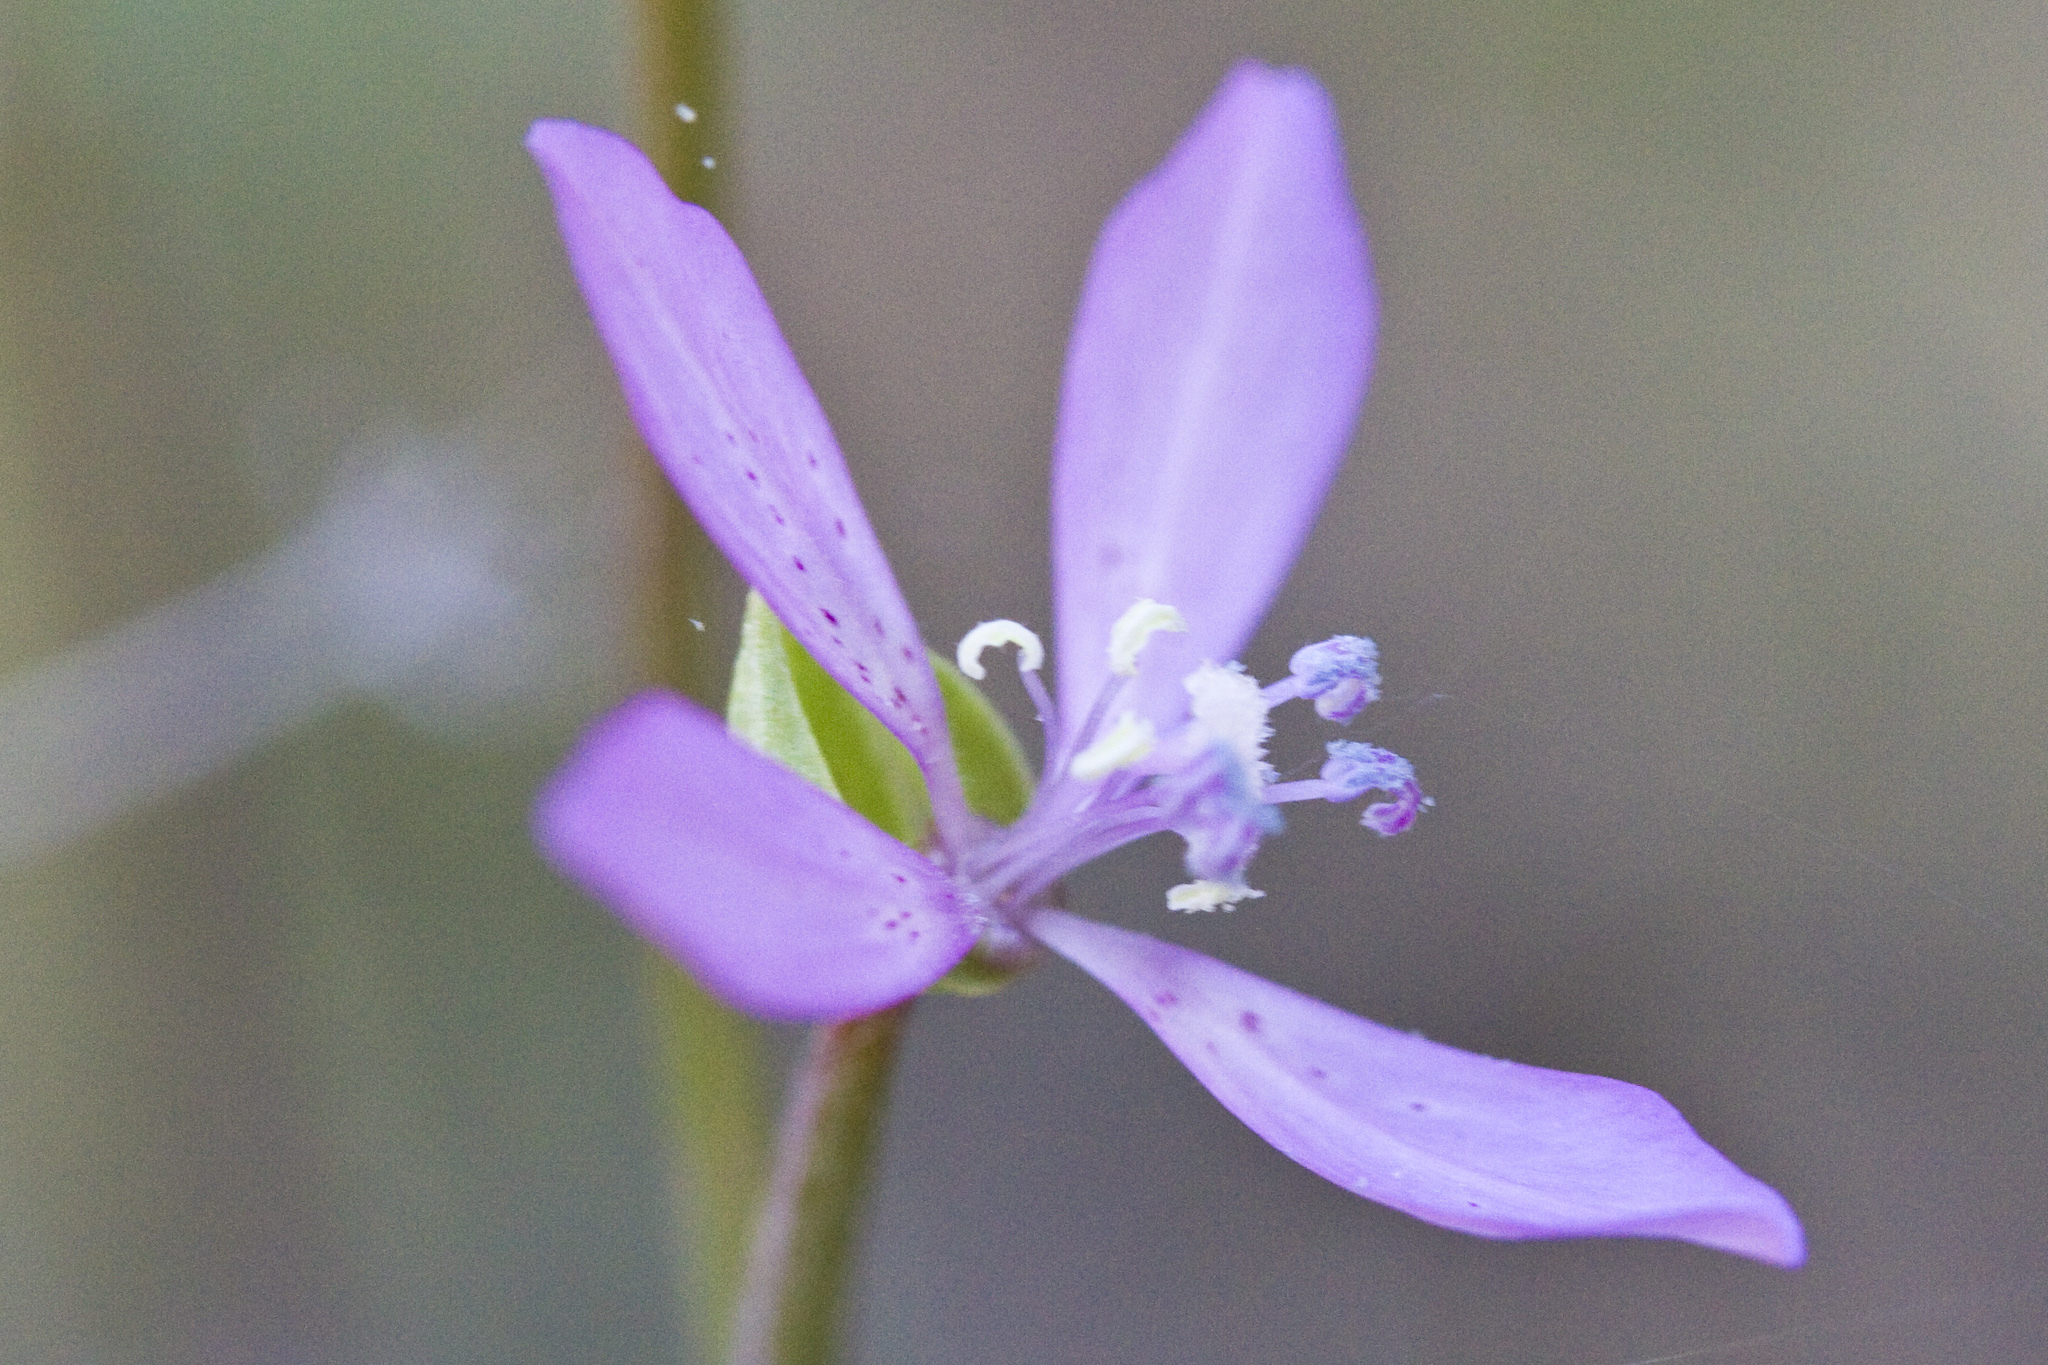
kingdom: Plantae
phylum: Tracheophyta
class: Magnoliopsida
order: Myrtales
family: Onagraceae
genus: Clarkia
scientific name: Clarkia modesta
